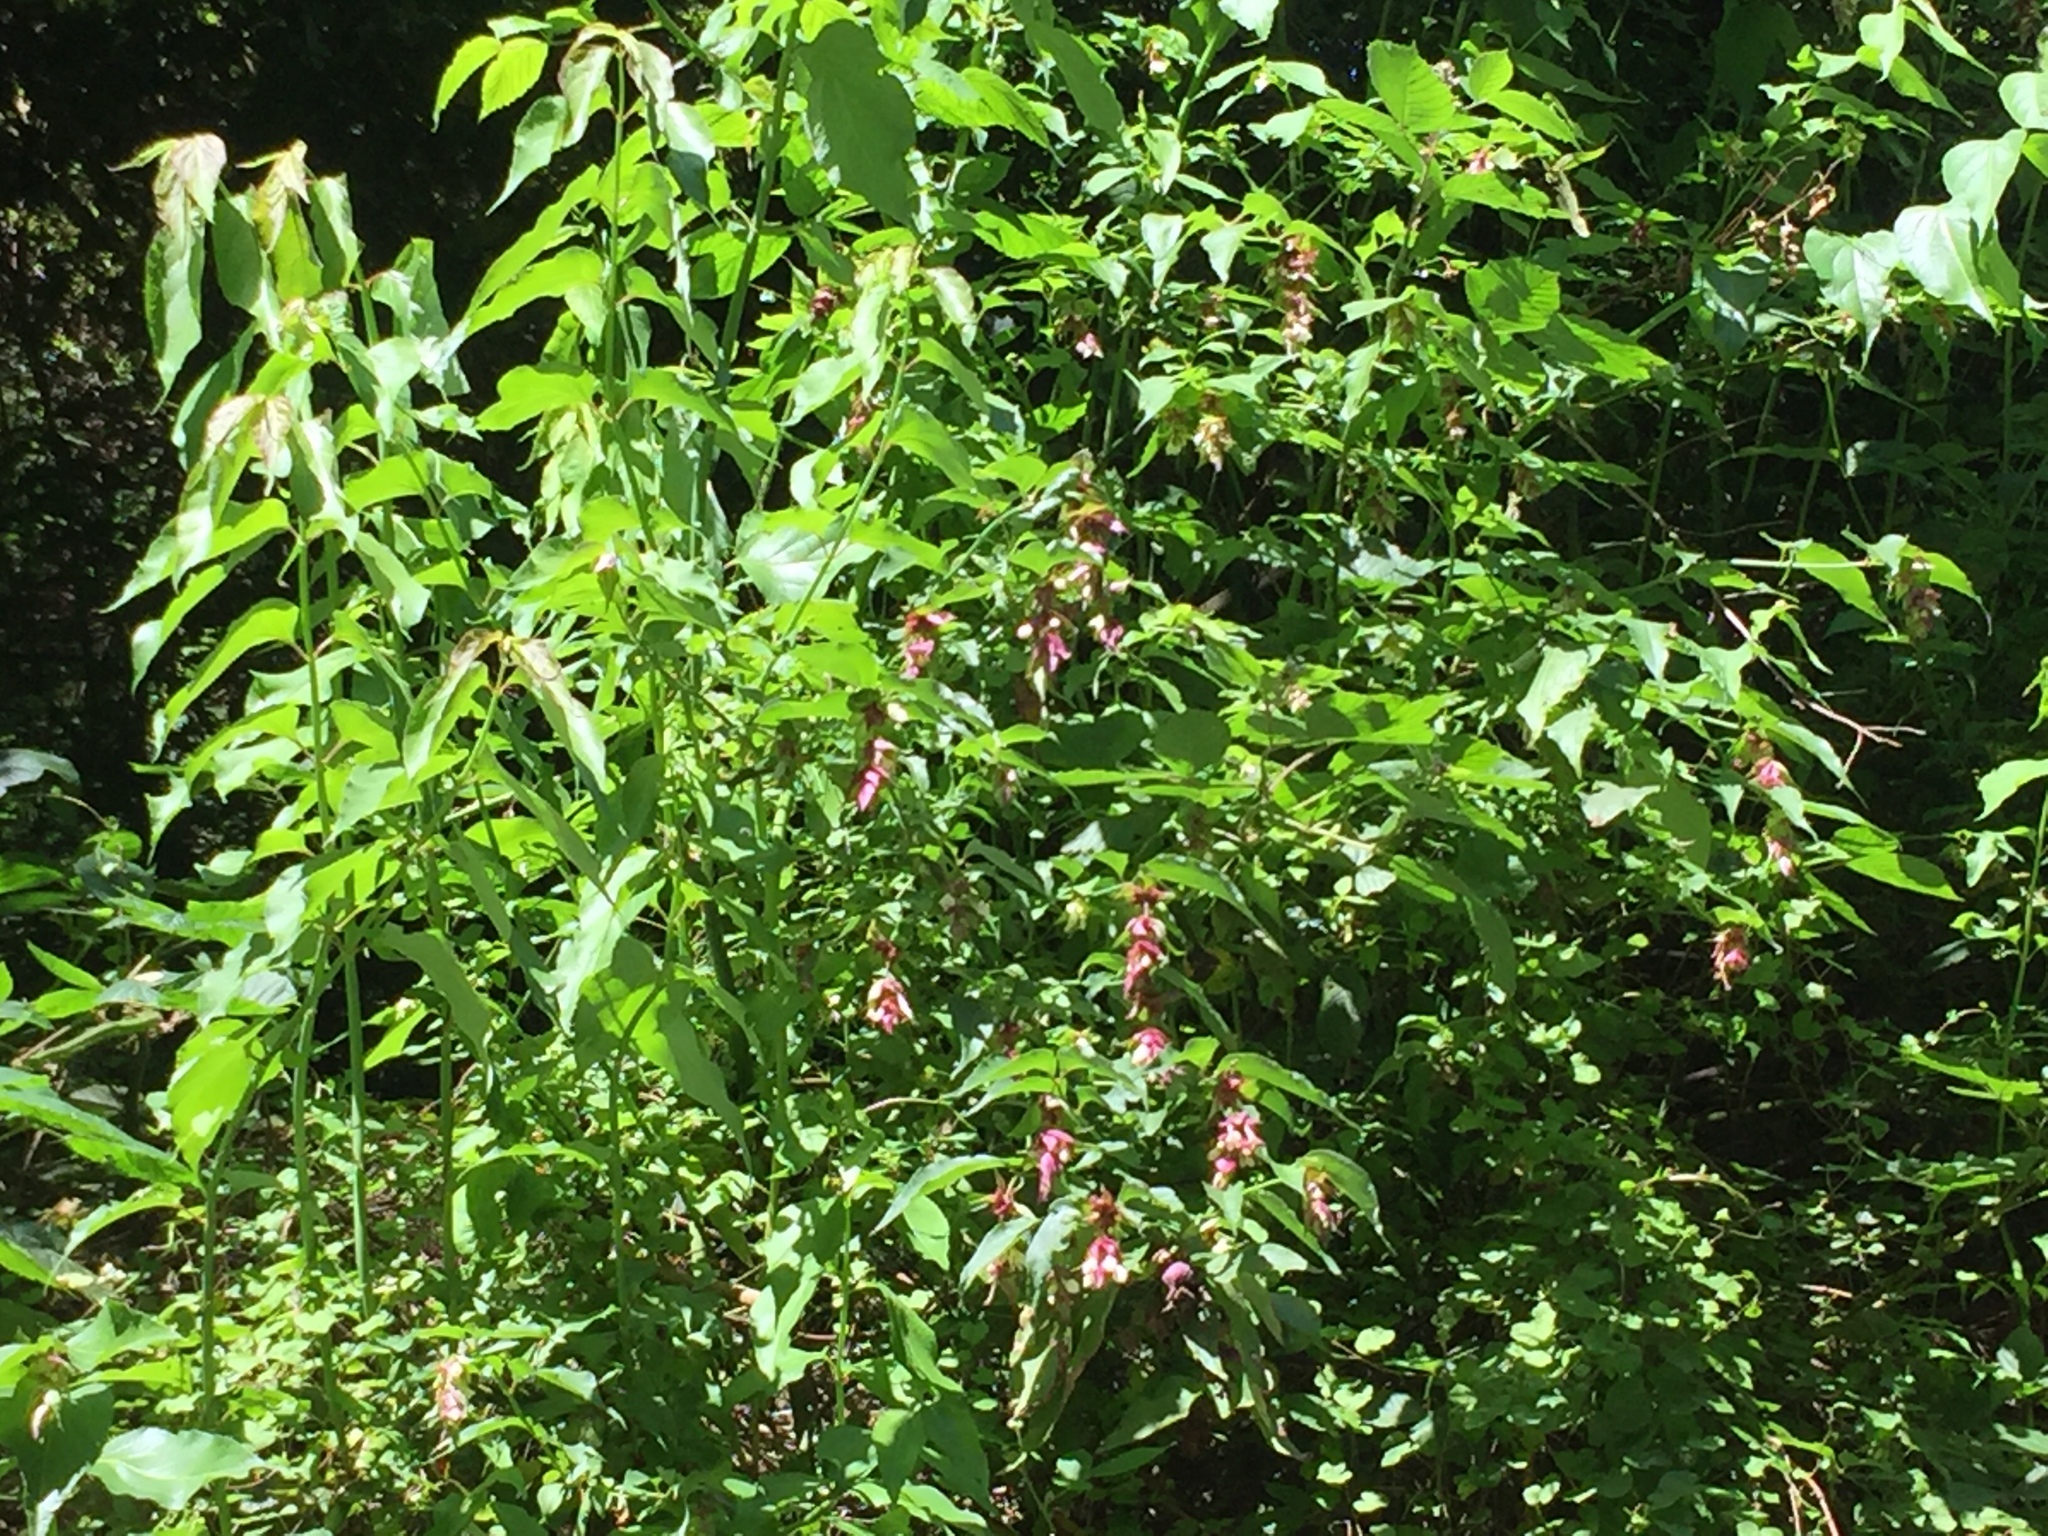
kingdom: Plantae
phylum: Tracheophyta
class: Magnoliopsida
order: Dipsacales
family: Caprifoliaceae
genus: Leycesteria
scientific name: Leycesteria formosa
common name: Himalayan honeysuckle
